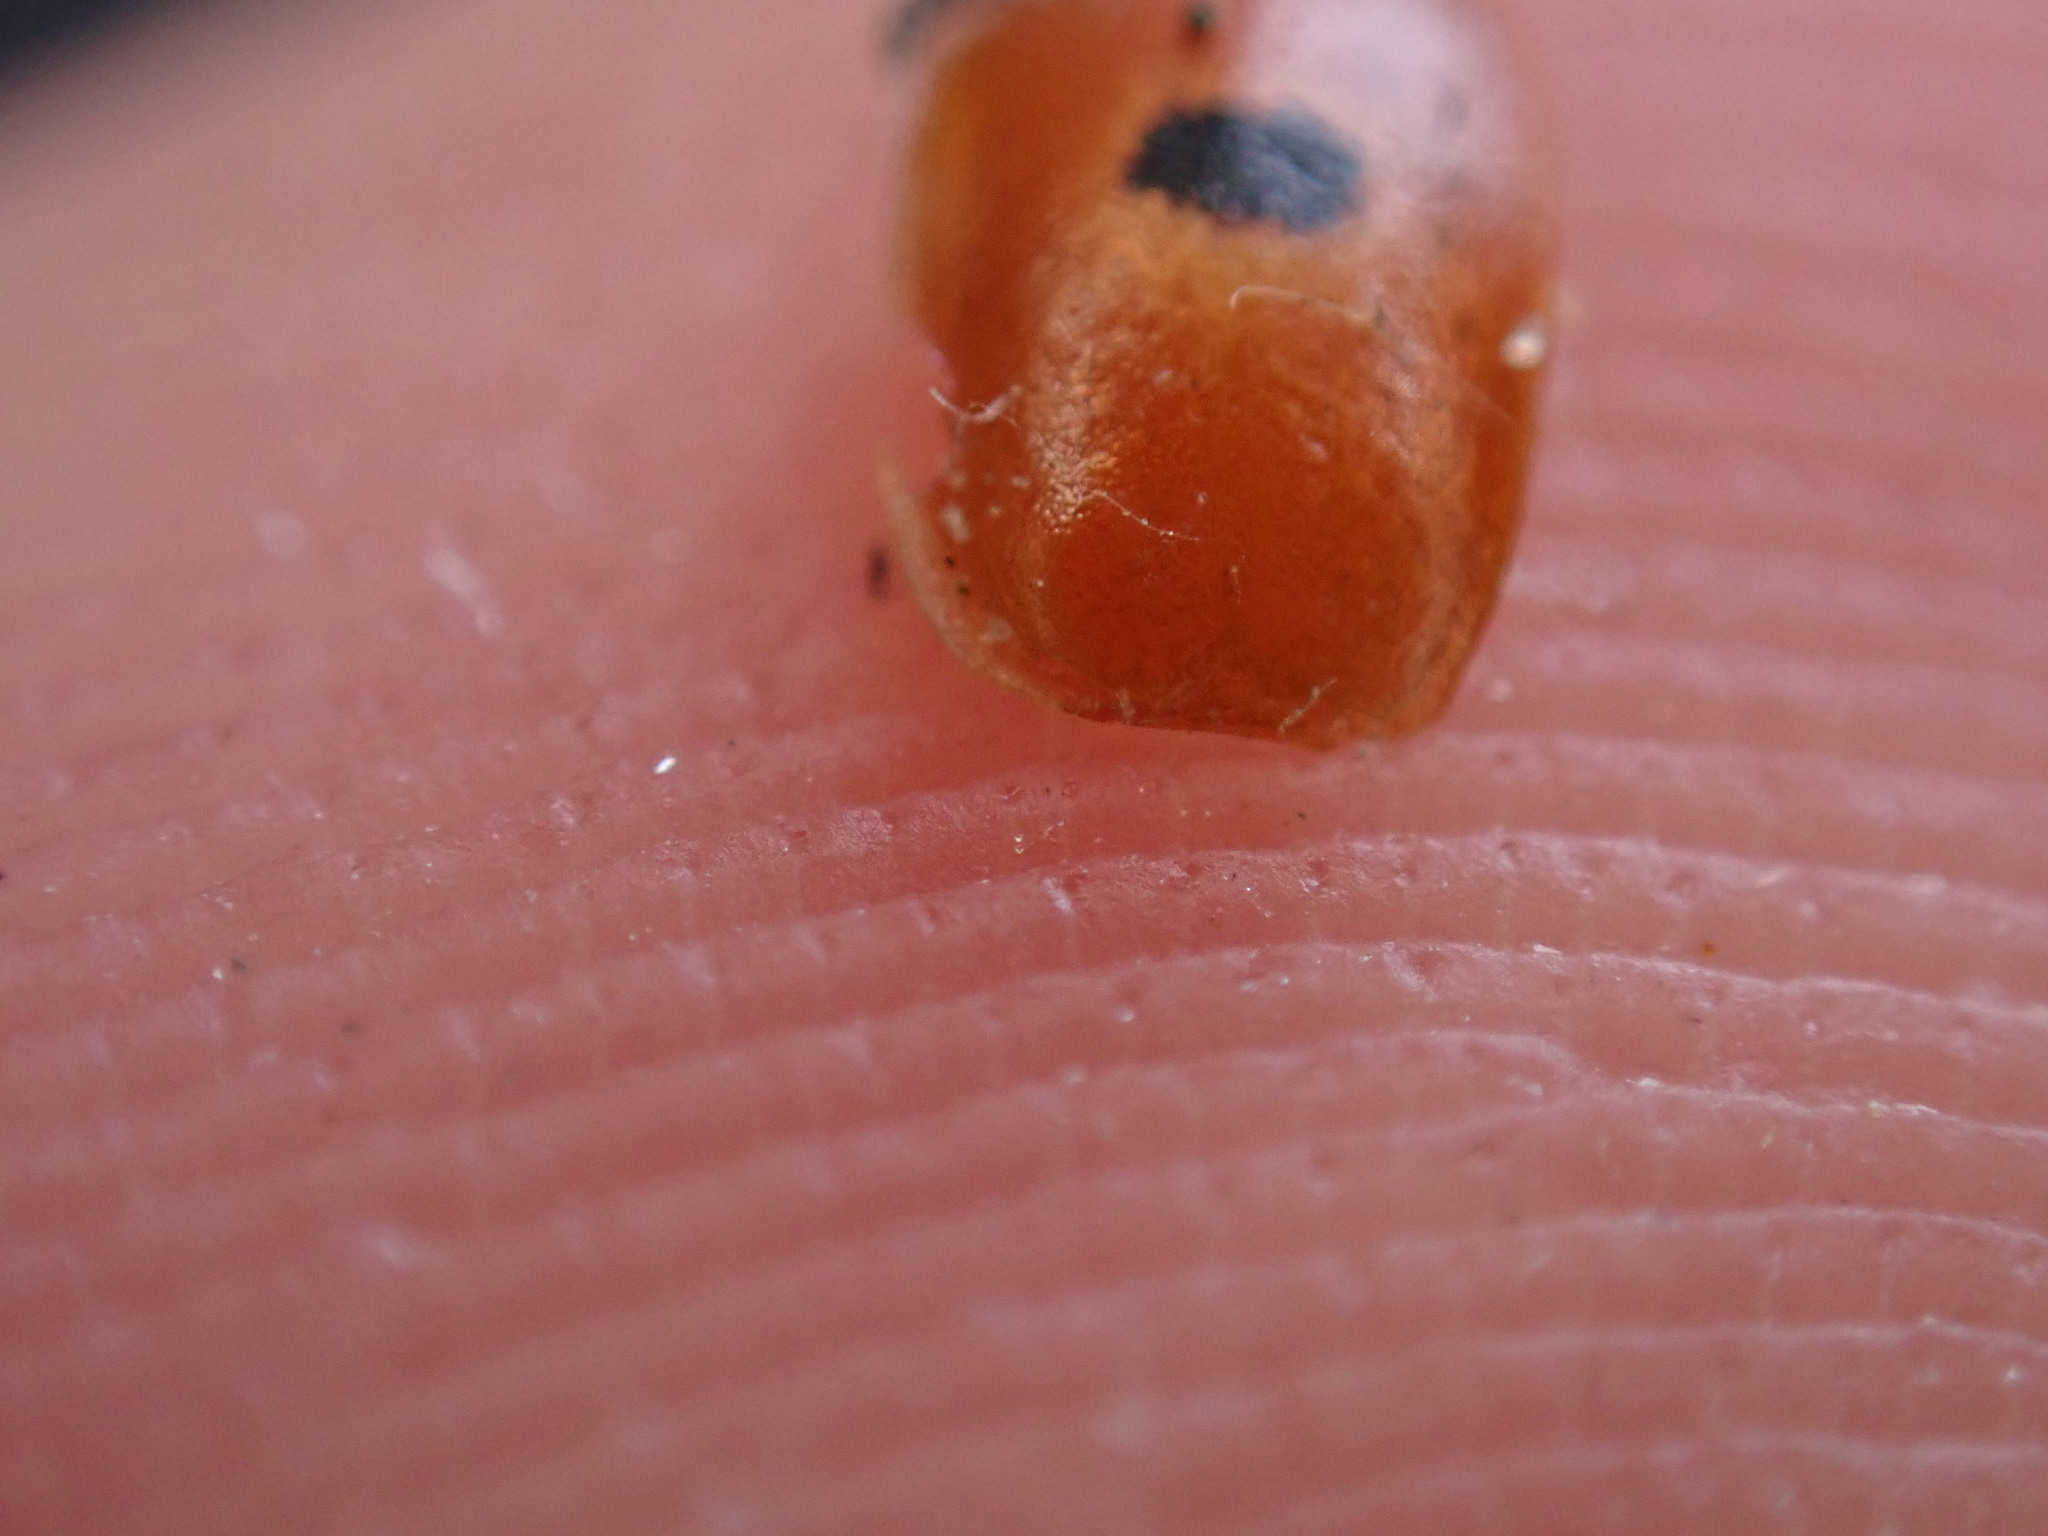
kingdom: Animalia
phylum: Arthropoda
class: Insecta
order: Coleoptera
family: Coccinellidae
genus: Adalia
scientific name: Adalia bipunctata
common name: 2-spot ladybird
